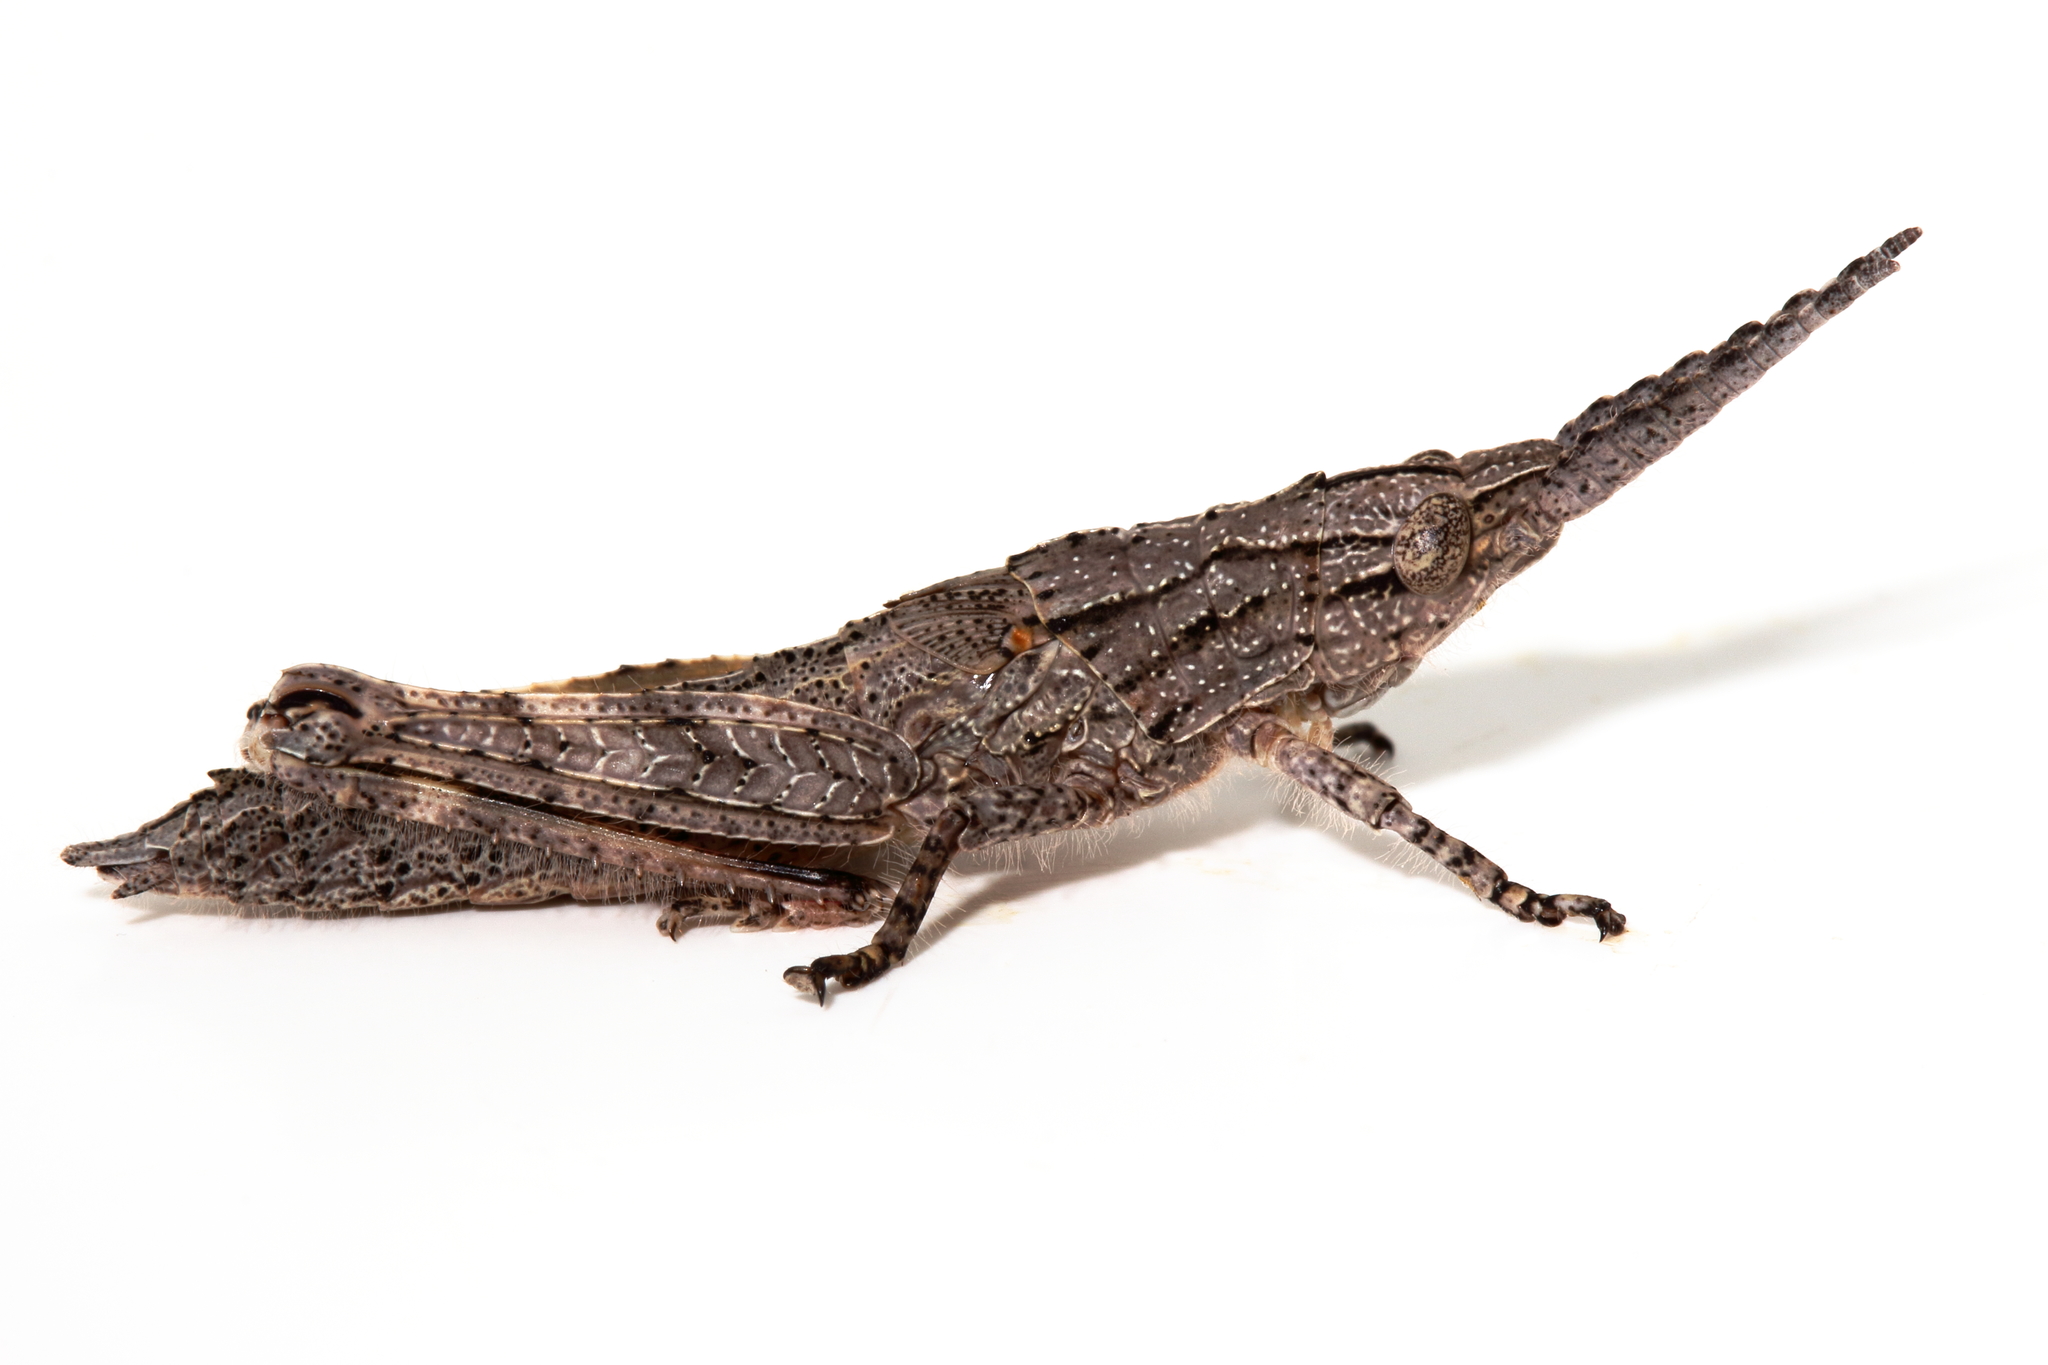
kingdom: Animalia
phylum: Arthropoda
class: Insecta
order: Orthoptera
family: Acrididae
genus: Macrolobalia
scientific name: Macrolobalia ocellata
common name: Gaudy acacia grasshopper
